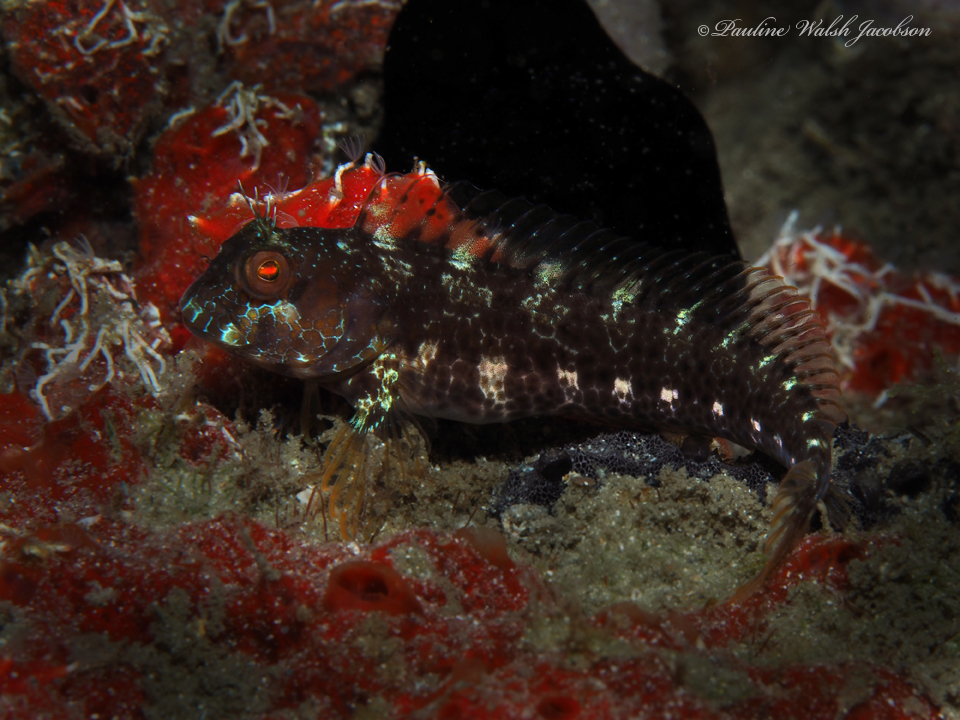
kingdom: Animalia
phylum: Chordata
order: Perciformes
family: Blenniidae
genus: Parablennius
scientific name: Parablennius marmoreus
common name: Seaweed blenny
